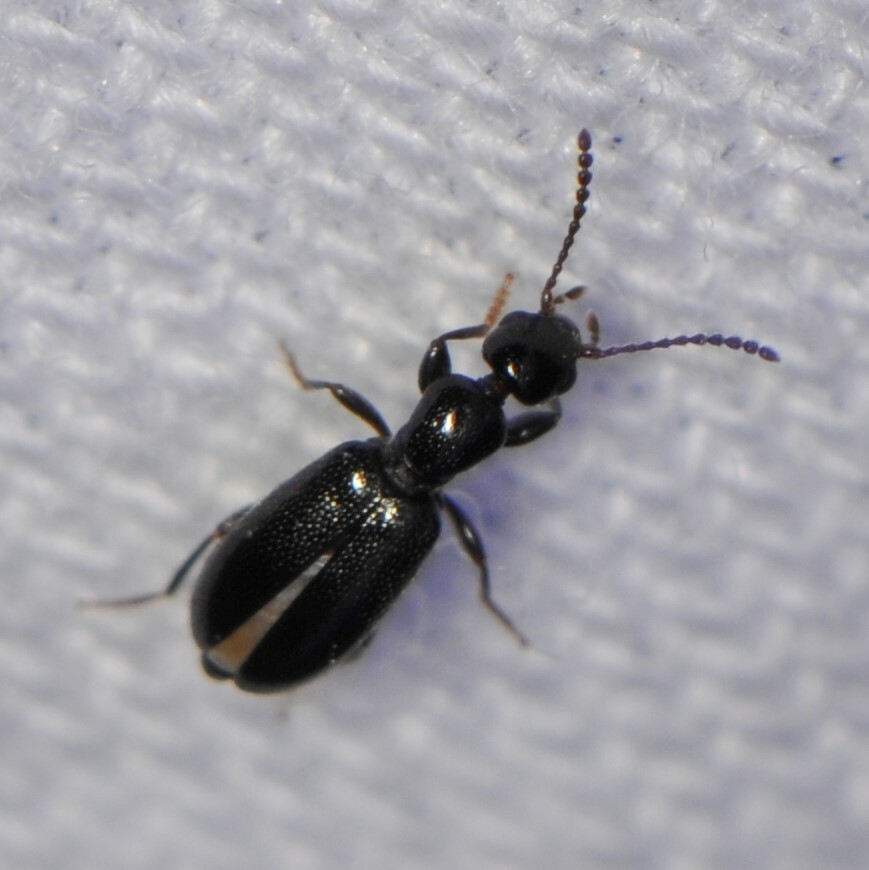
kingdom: Animalia
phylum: Arthropoda
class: Insecta
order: Coleoptera
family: Anthicidae
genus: Vacusus
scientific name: Vacusus confinis
